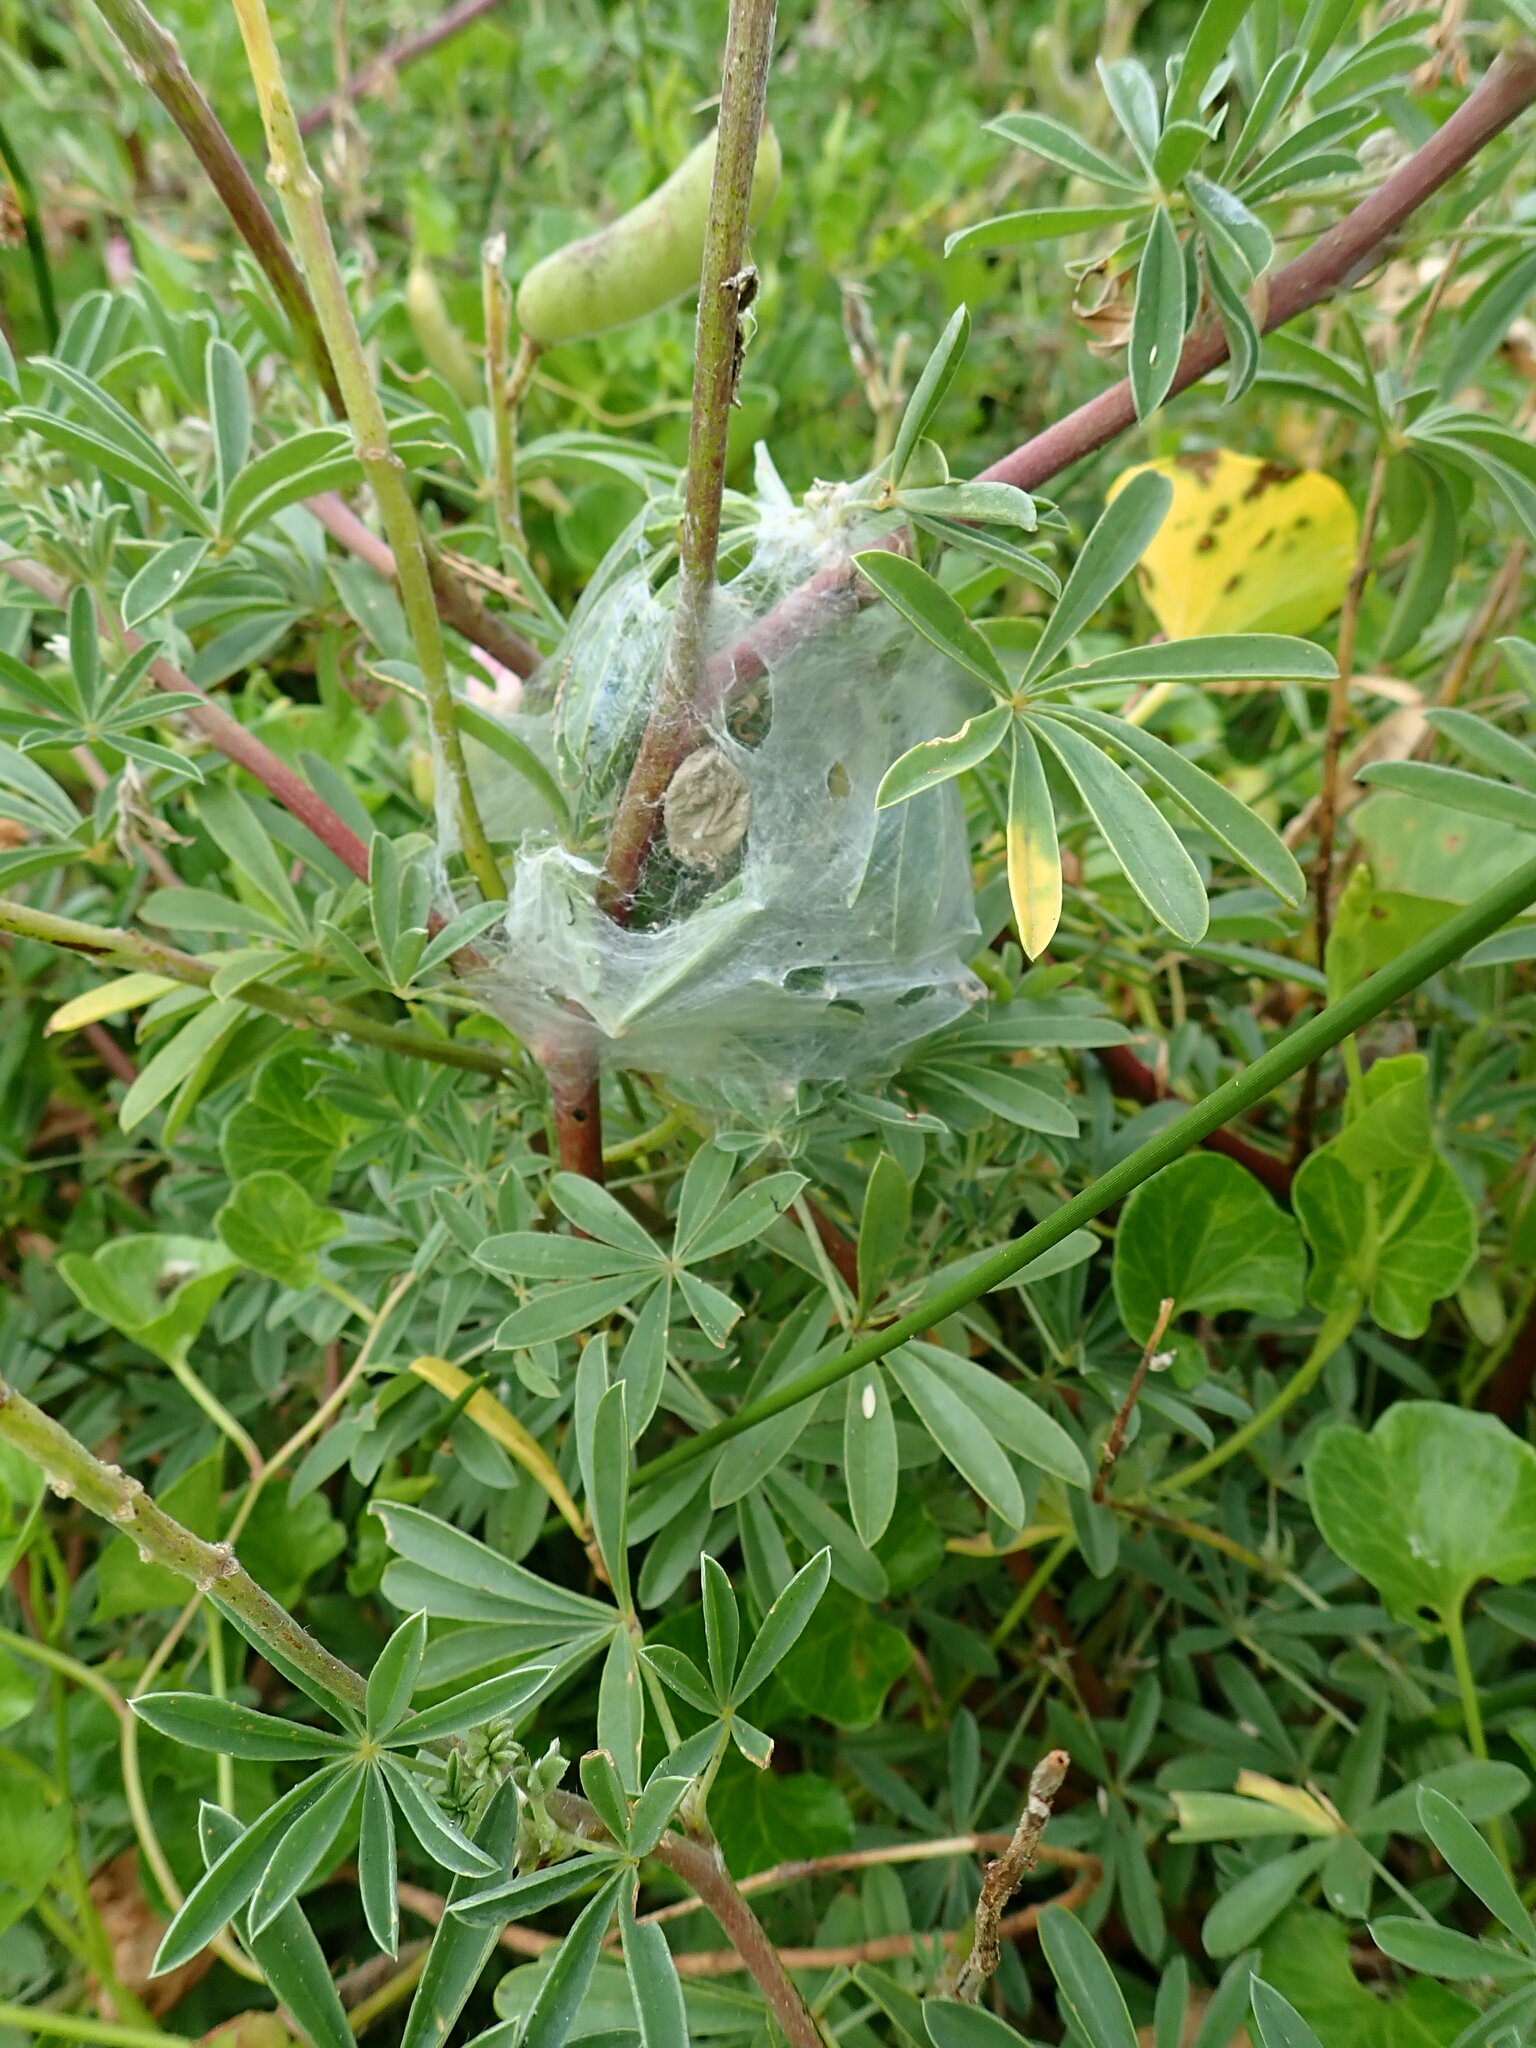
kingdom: Animalia
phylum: Arthropoda
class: Arachnida
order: Araneae
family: Pisauridae
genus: Dolomedes
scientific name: Dolomedes minor
